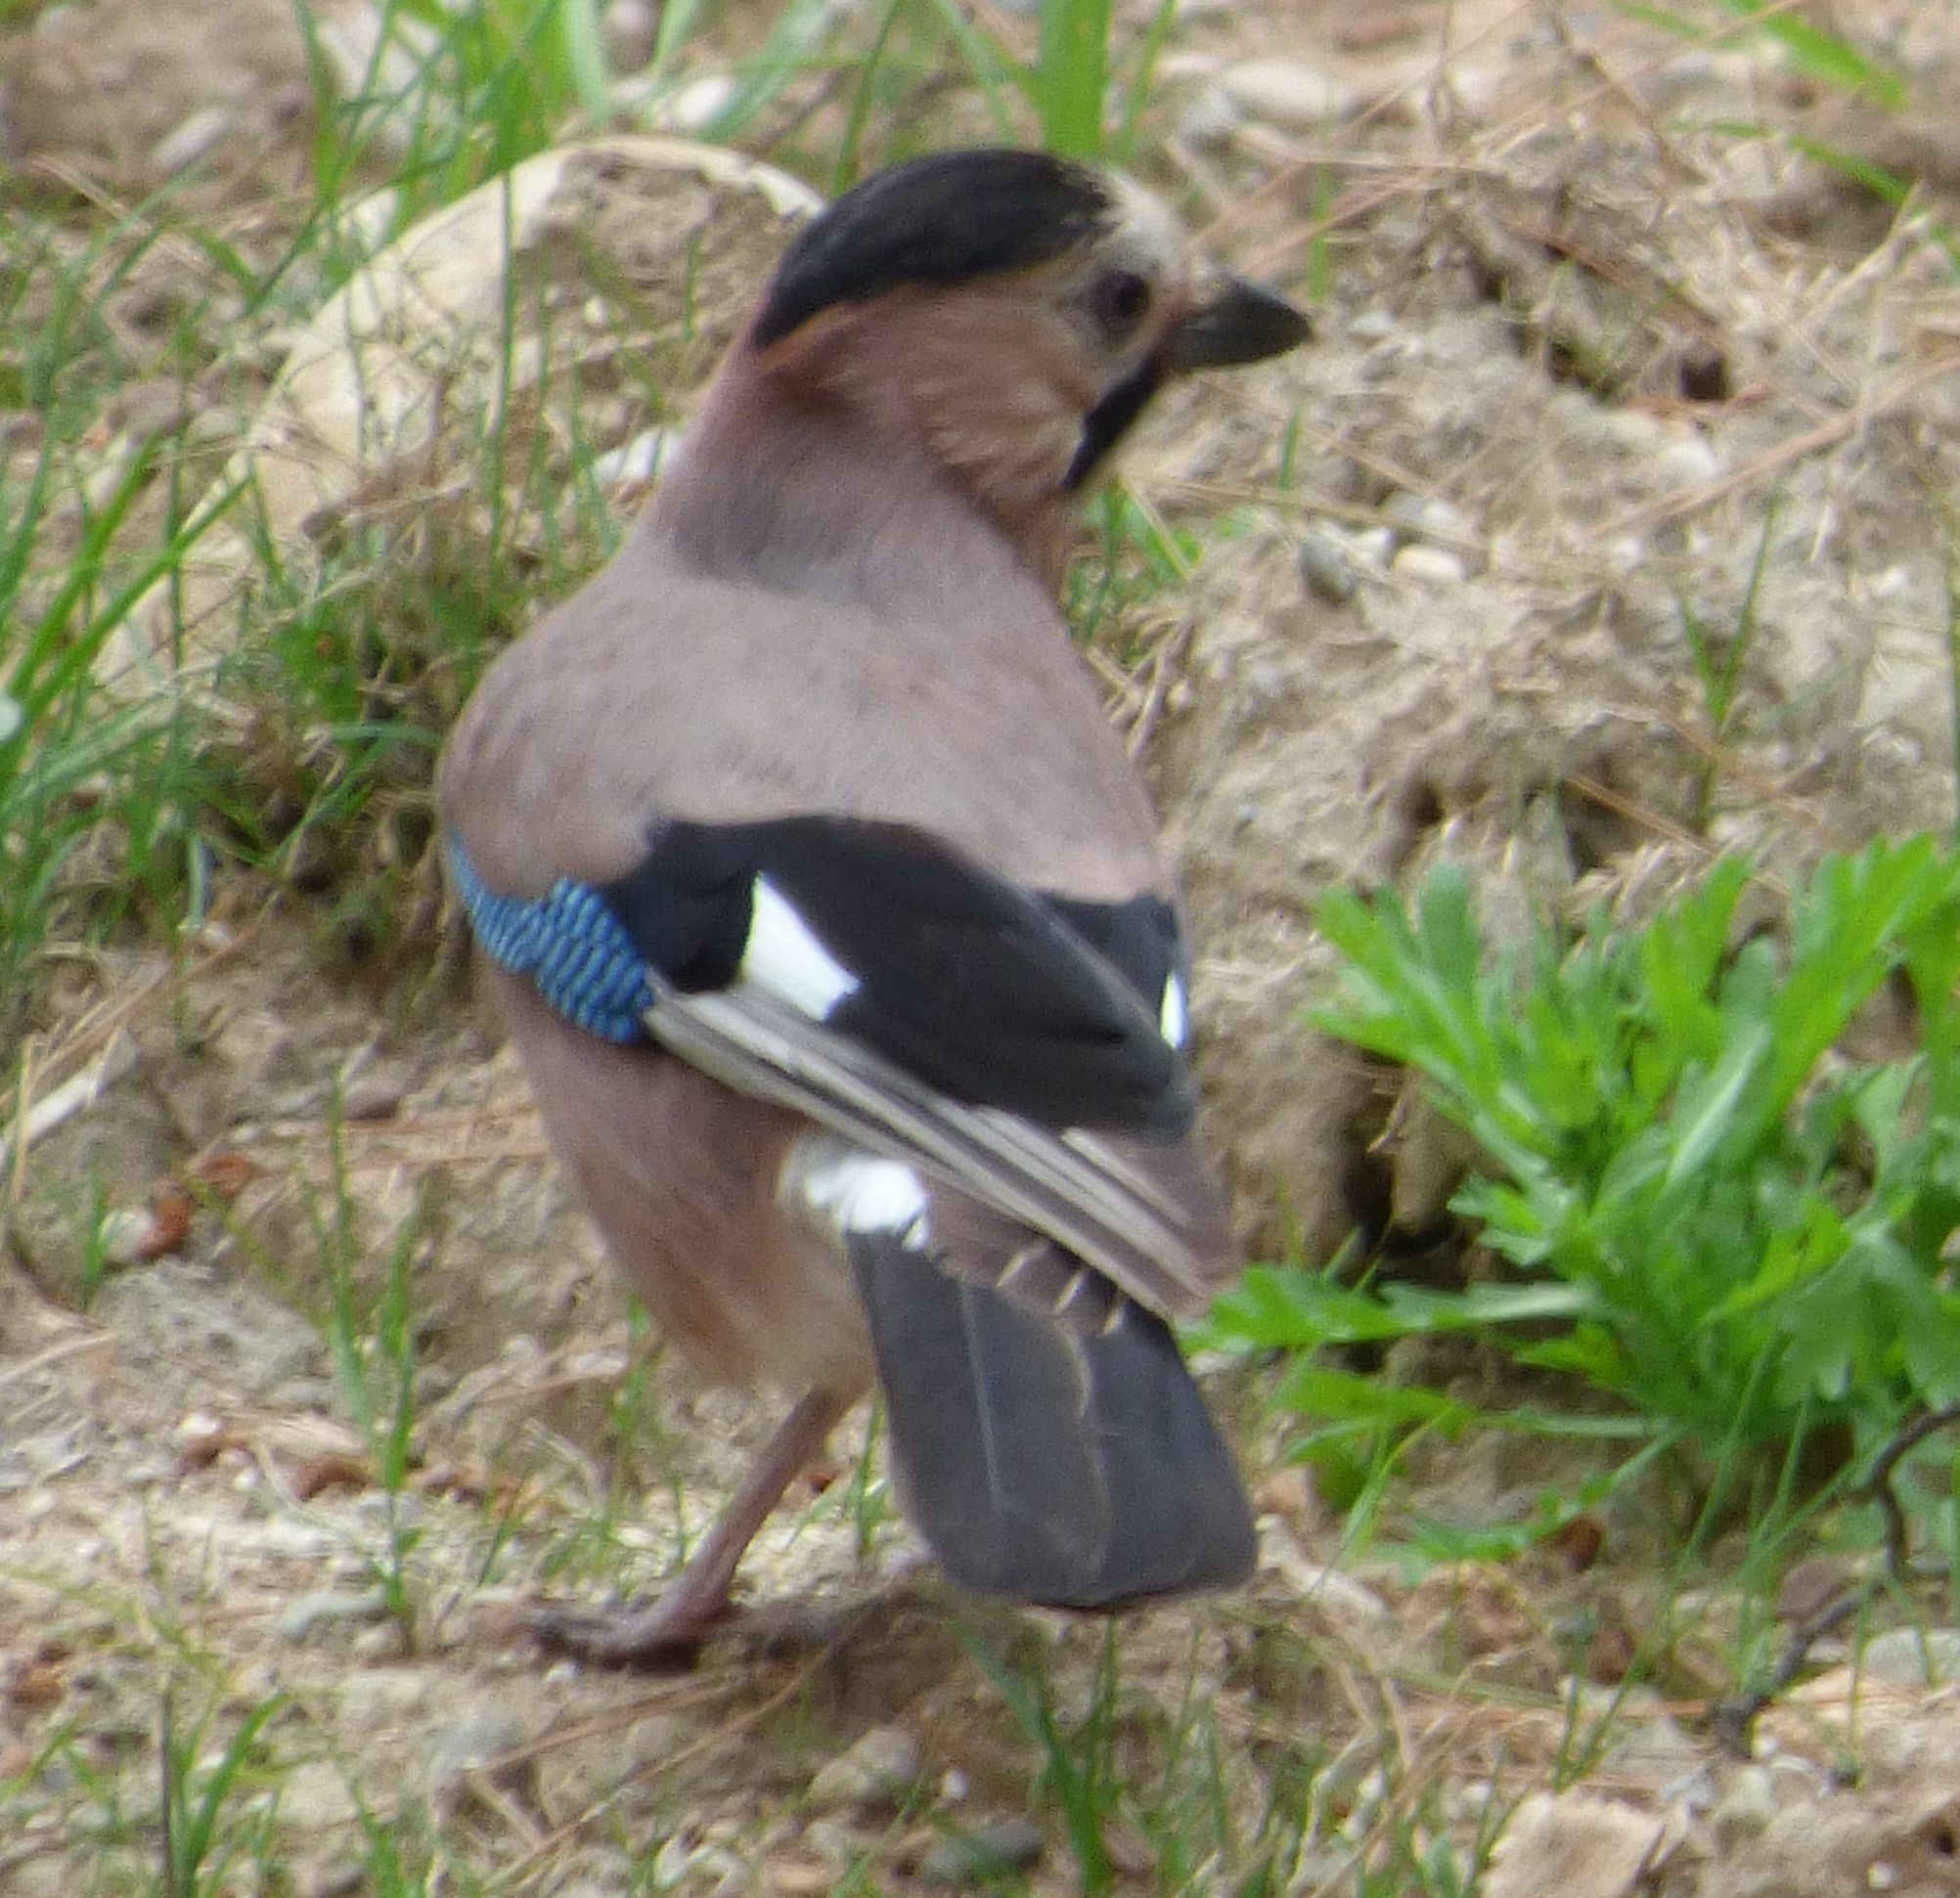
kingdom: Animalia
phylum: Chordata
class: Aves
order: Passeriformes
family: Corvidae
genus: Garrulus
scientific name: Garrulus glandarius
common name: Eurasian jay
